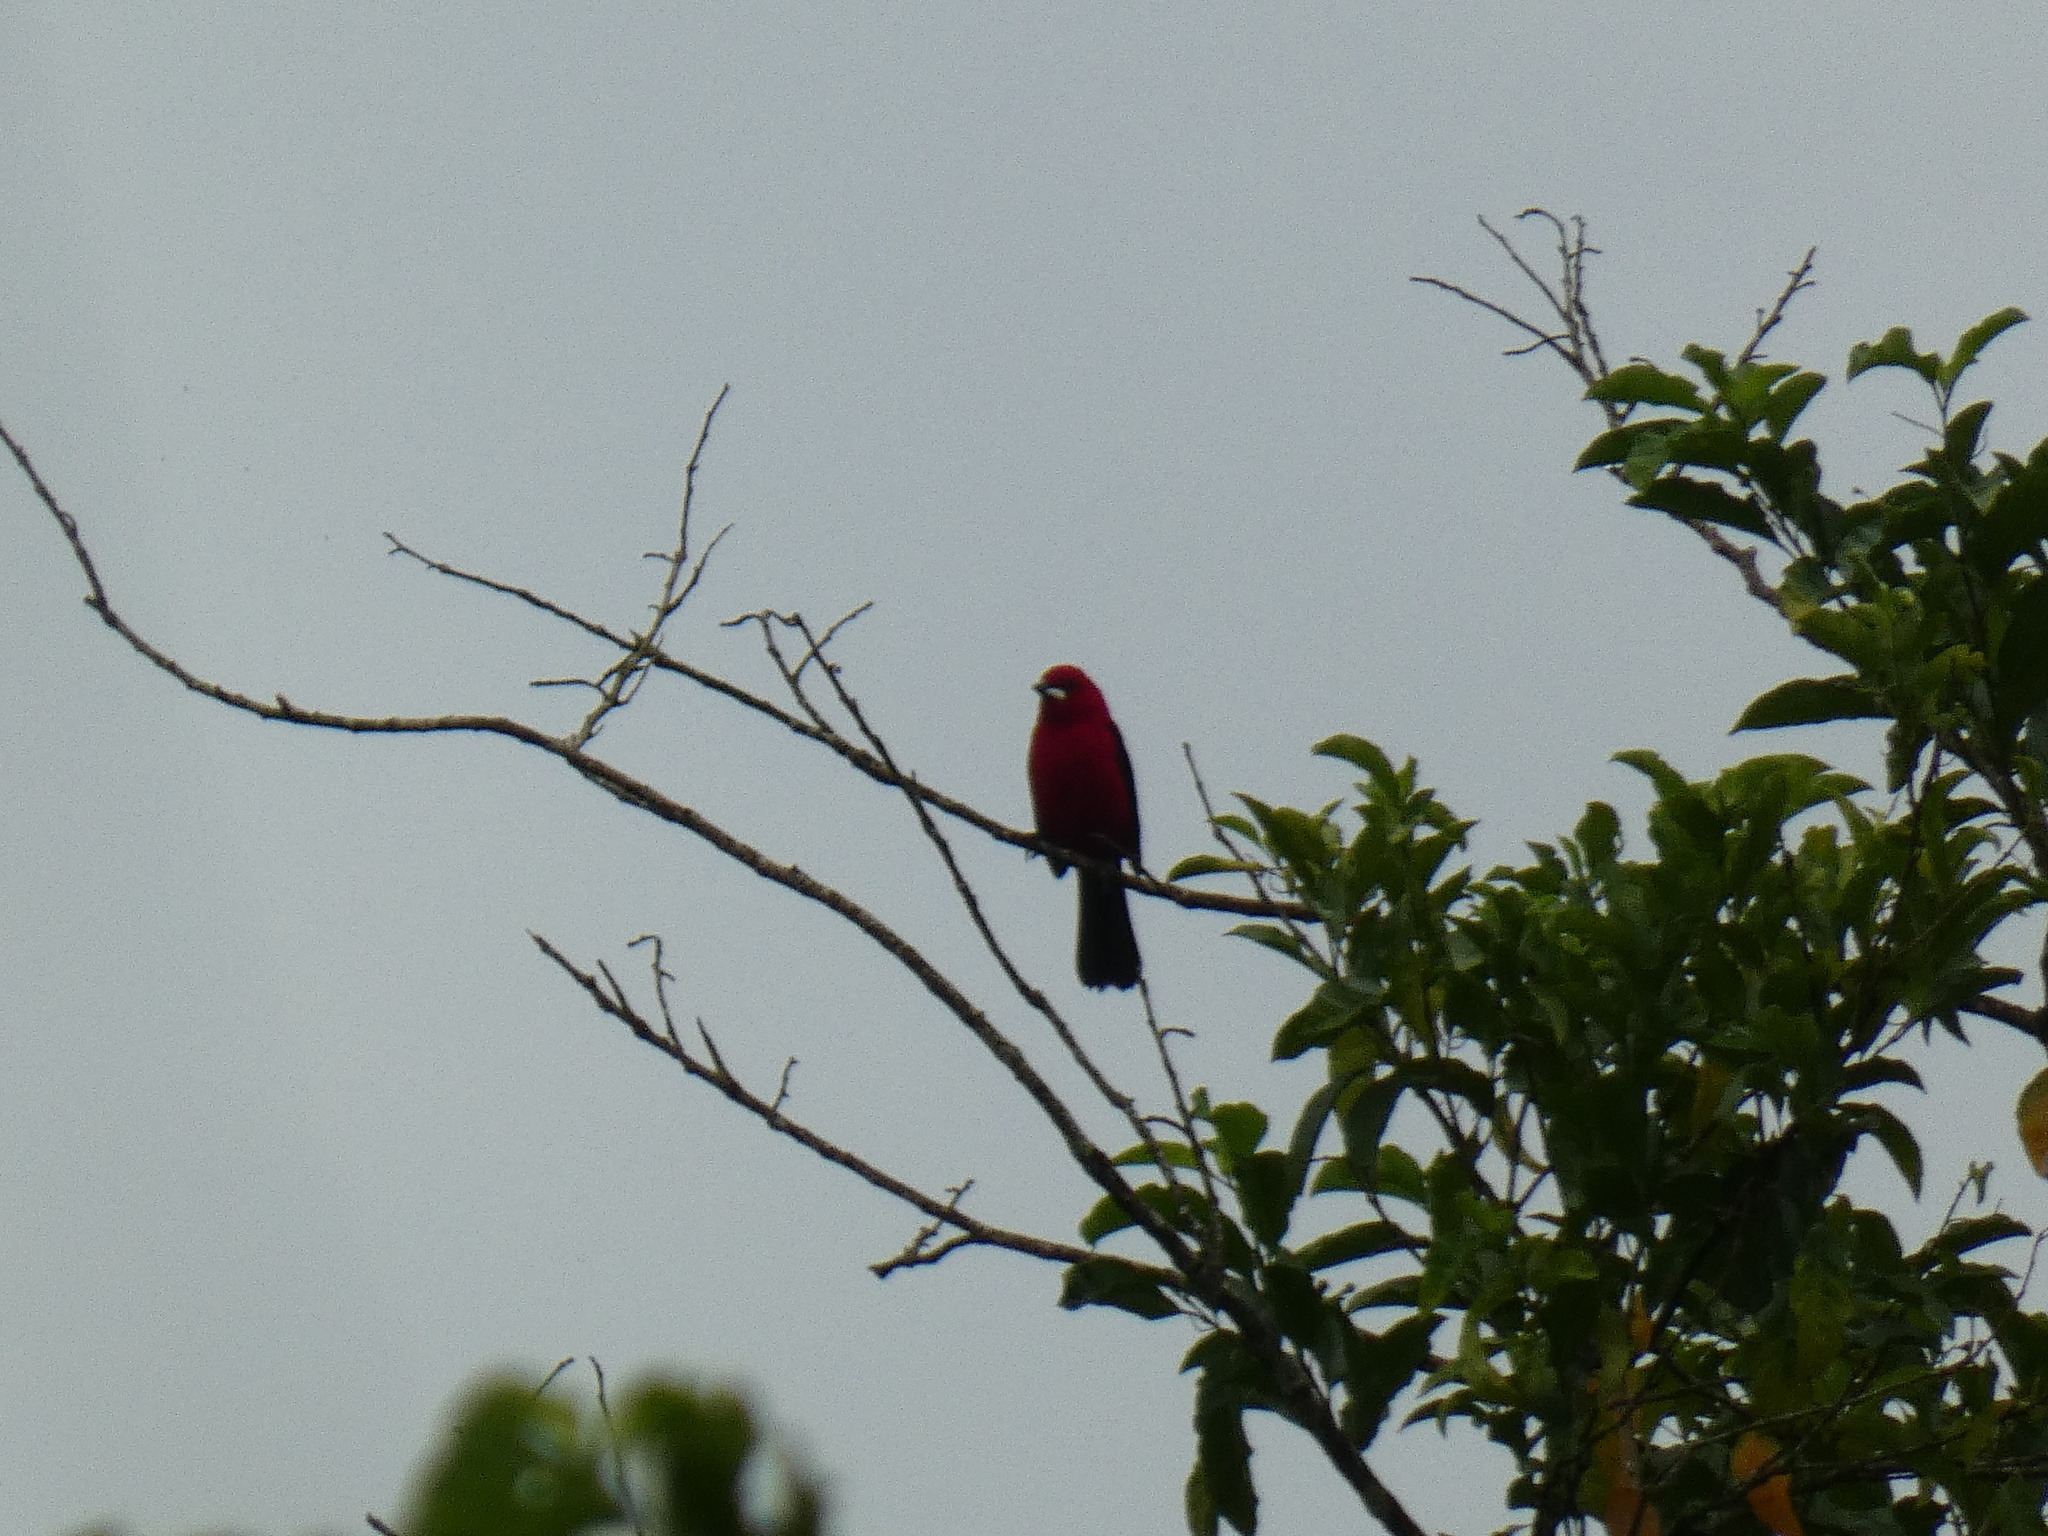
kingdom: Animalia
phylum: Chordata
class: Aves
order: Passeriformes
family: Thraupidae
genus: Ramphocelus
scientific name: Ramphocelus bresilia
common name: Brazilian tanager
